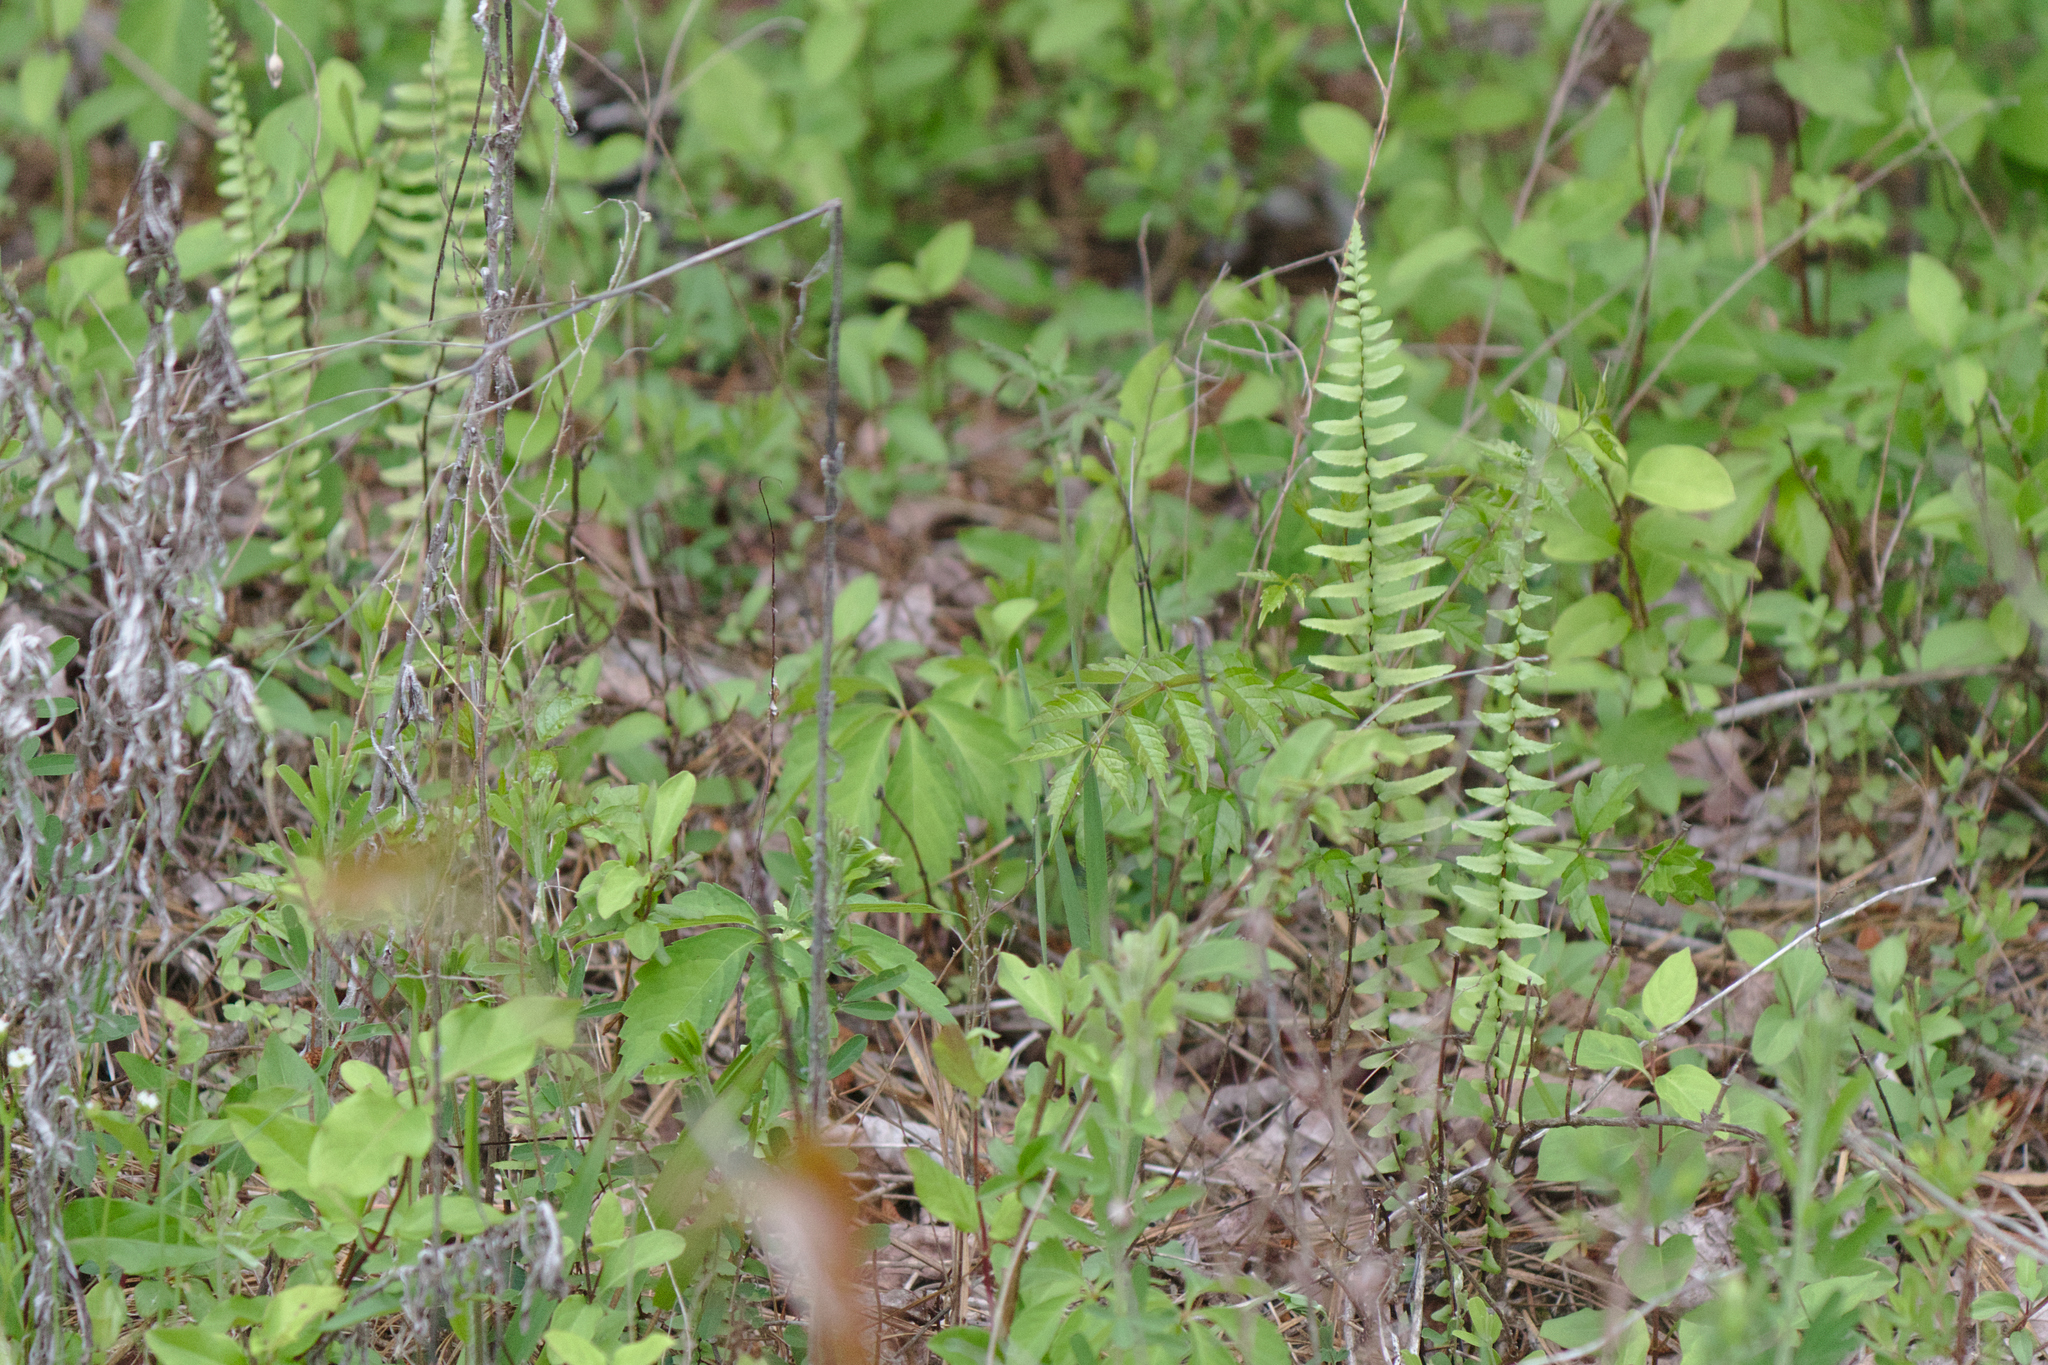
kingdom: Plantae
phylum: Tracheophyta
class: Polypodiopsida
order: Polypodiales
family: Aspleniaceae
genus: Asplenium
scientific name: Asplenium platyneuron
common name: Ebony spleenwort
